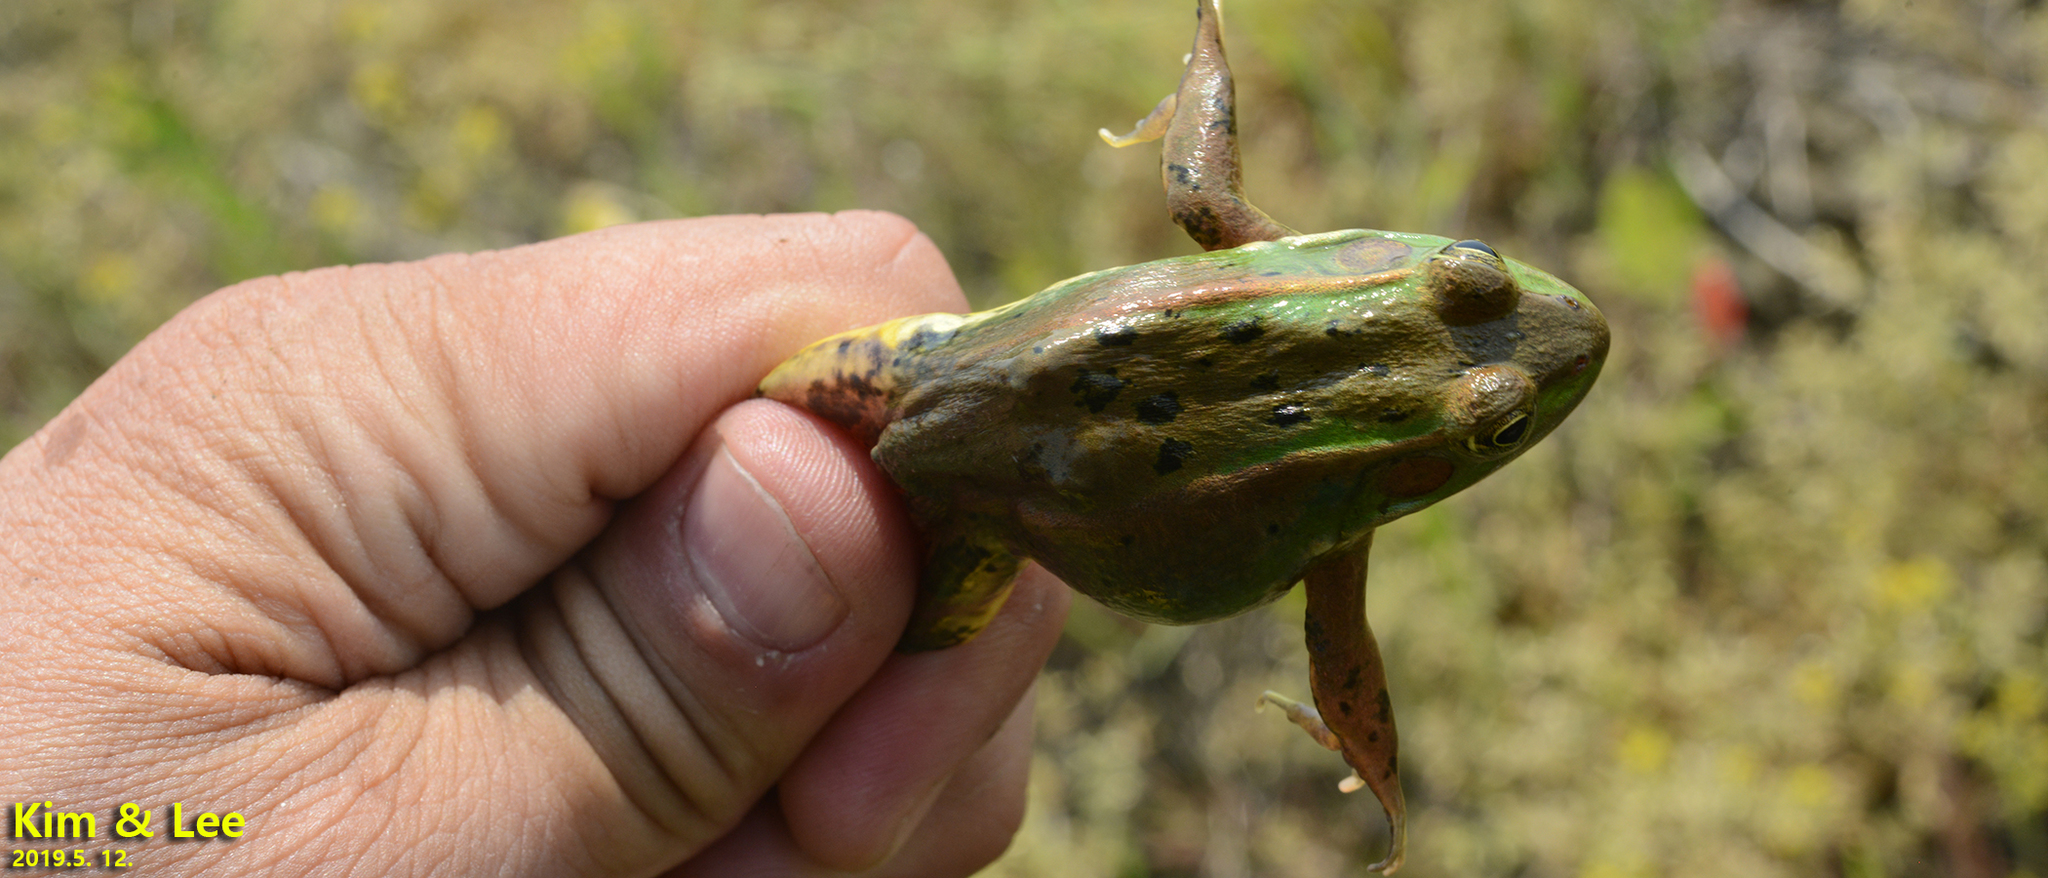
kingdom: Animalia
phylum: Chordata
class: Amphibia
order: Anura
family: Ranidae
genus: Pelophylax
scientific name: Pelophylax chosenicus
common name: Gold-spotted pond frog
